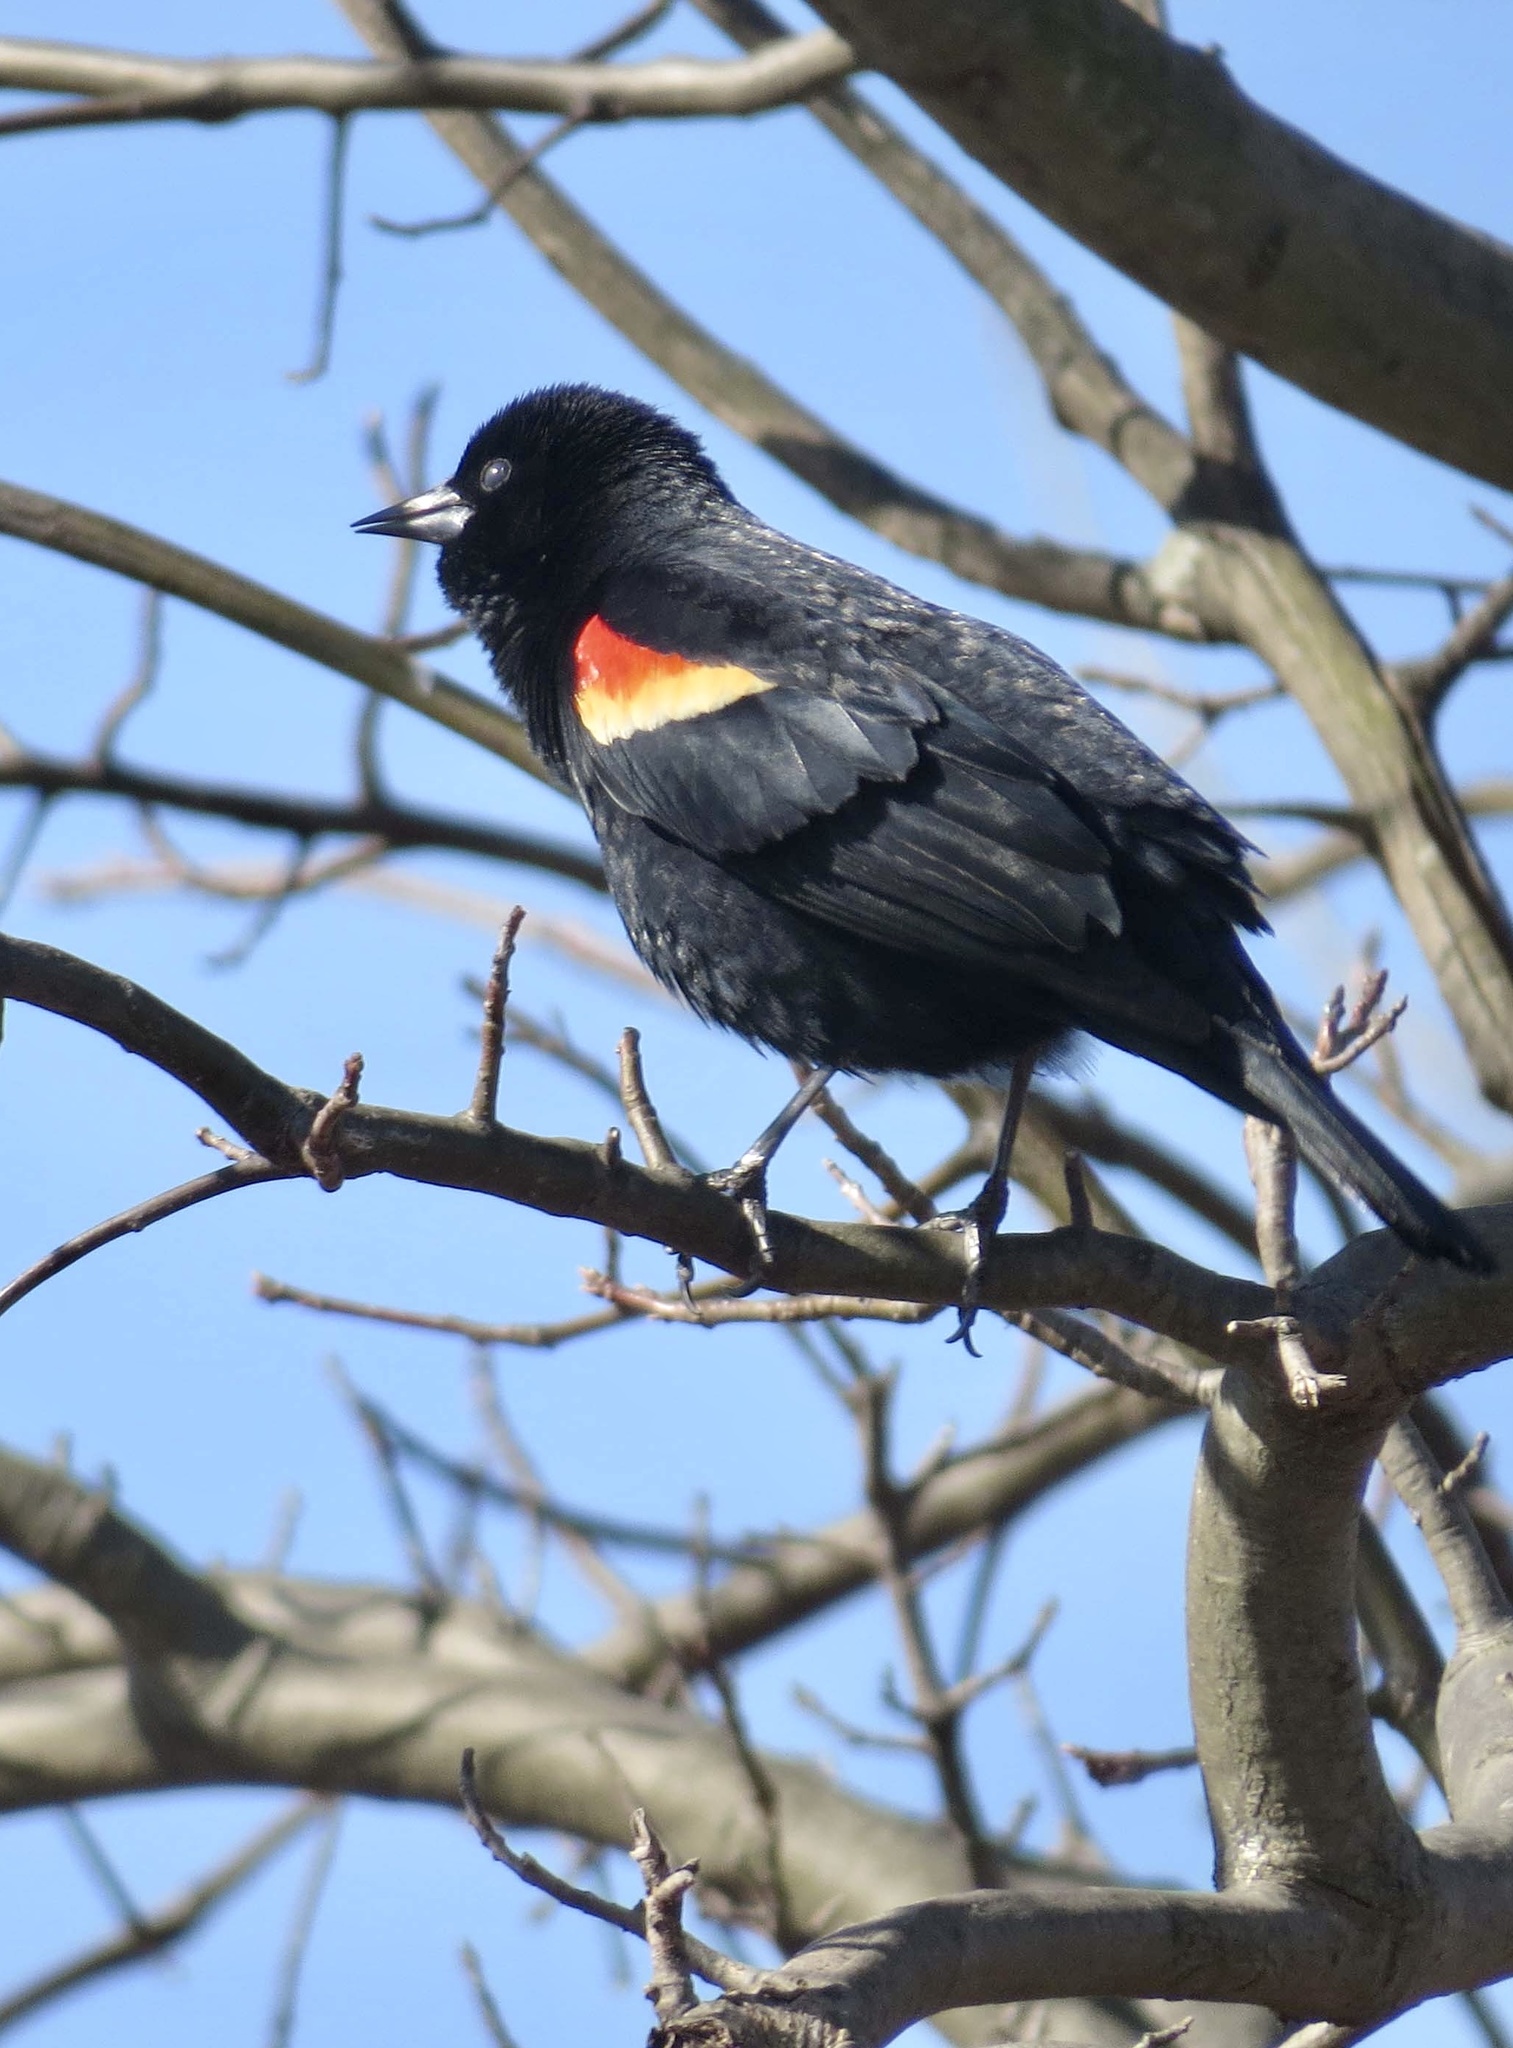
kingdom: Animalia
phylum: Chordata
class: Aves
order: Passeriformes
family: Icteridae
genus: Agelaius
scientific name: Agelaius phoeniceus
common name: Red-winged blackbird
